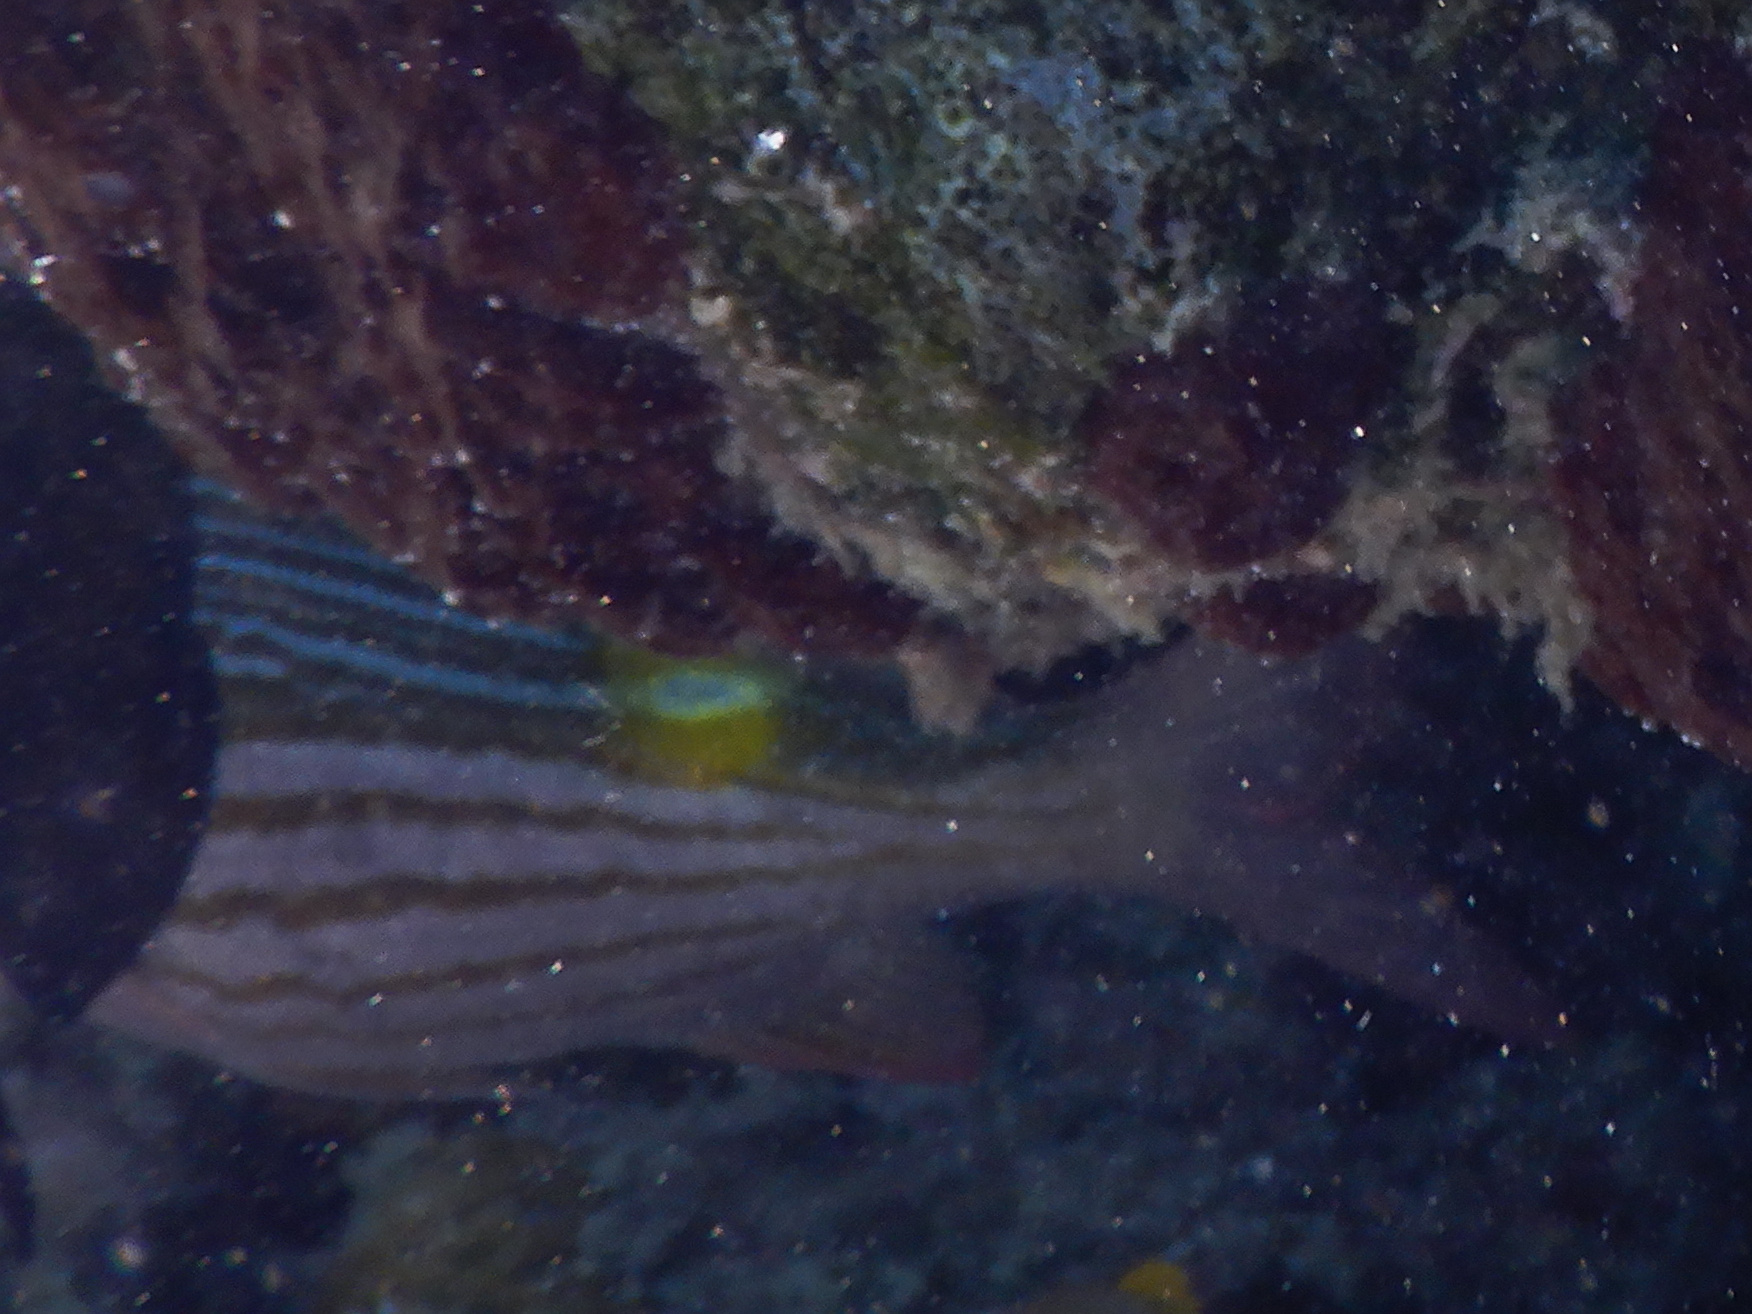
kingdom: Animalia
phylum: Chordata
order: Perciformes
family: Lethrinidae
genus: Gnathodentex
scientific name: Gnathodentex aureolineatus
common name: Gold-lined sea bream
